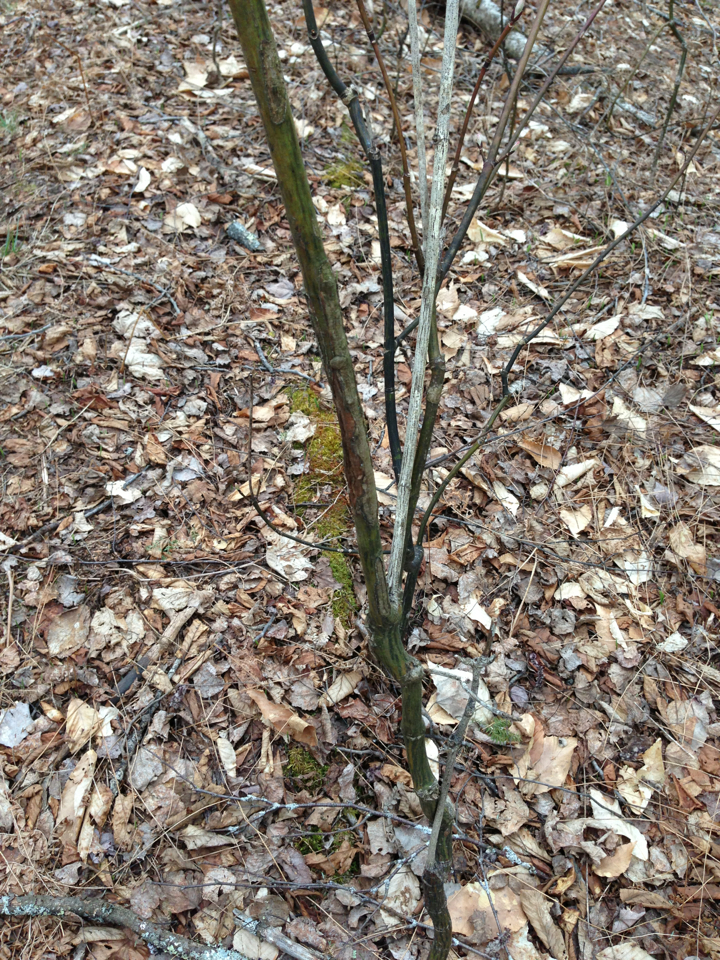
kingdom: Plantae
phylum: Tracheophyta
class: Magnoliopsida
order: Sapindales
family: Sapindaceae
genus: Acer
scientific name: Acer pensylvanicum
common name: Moosewood
